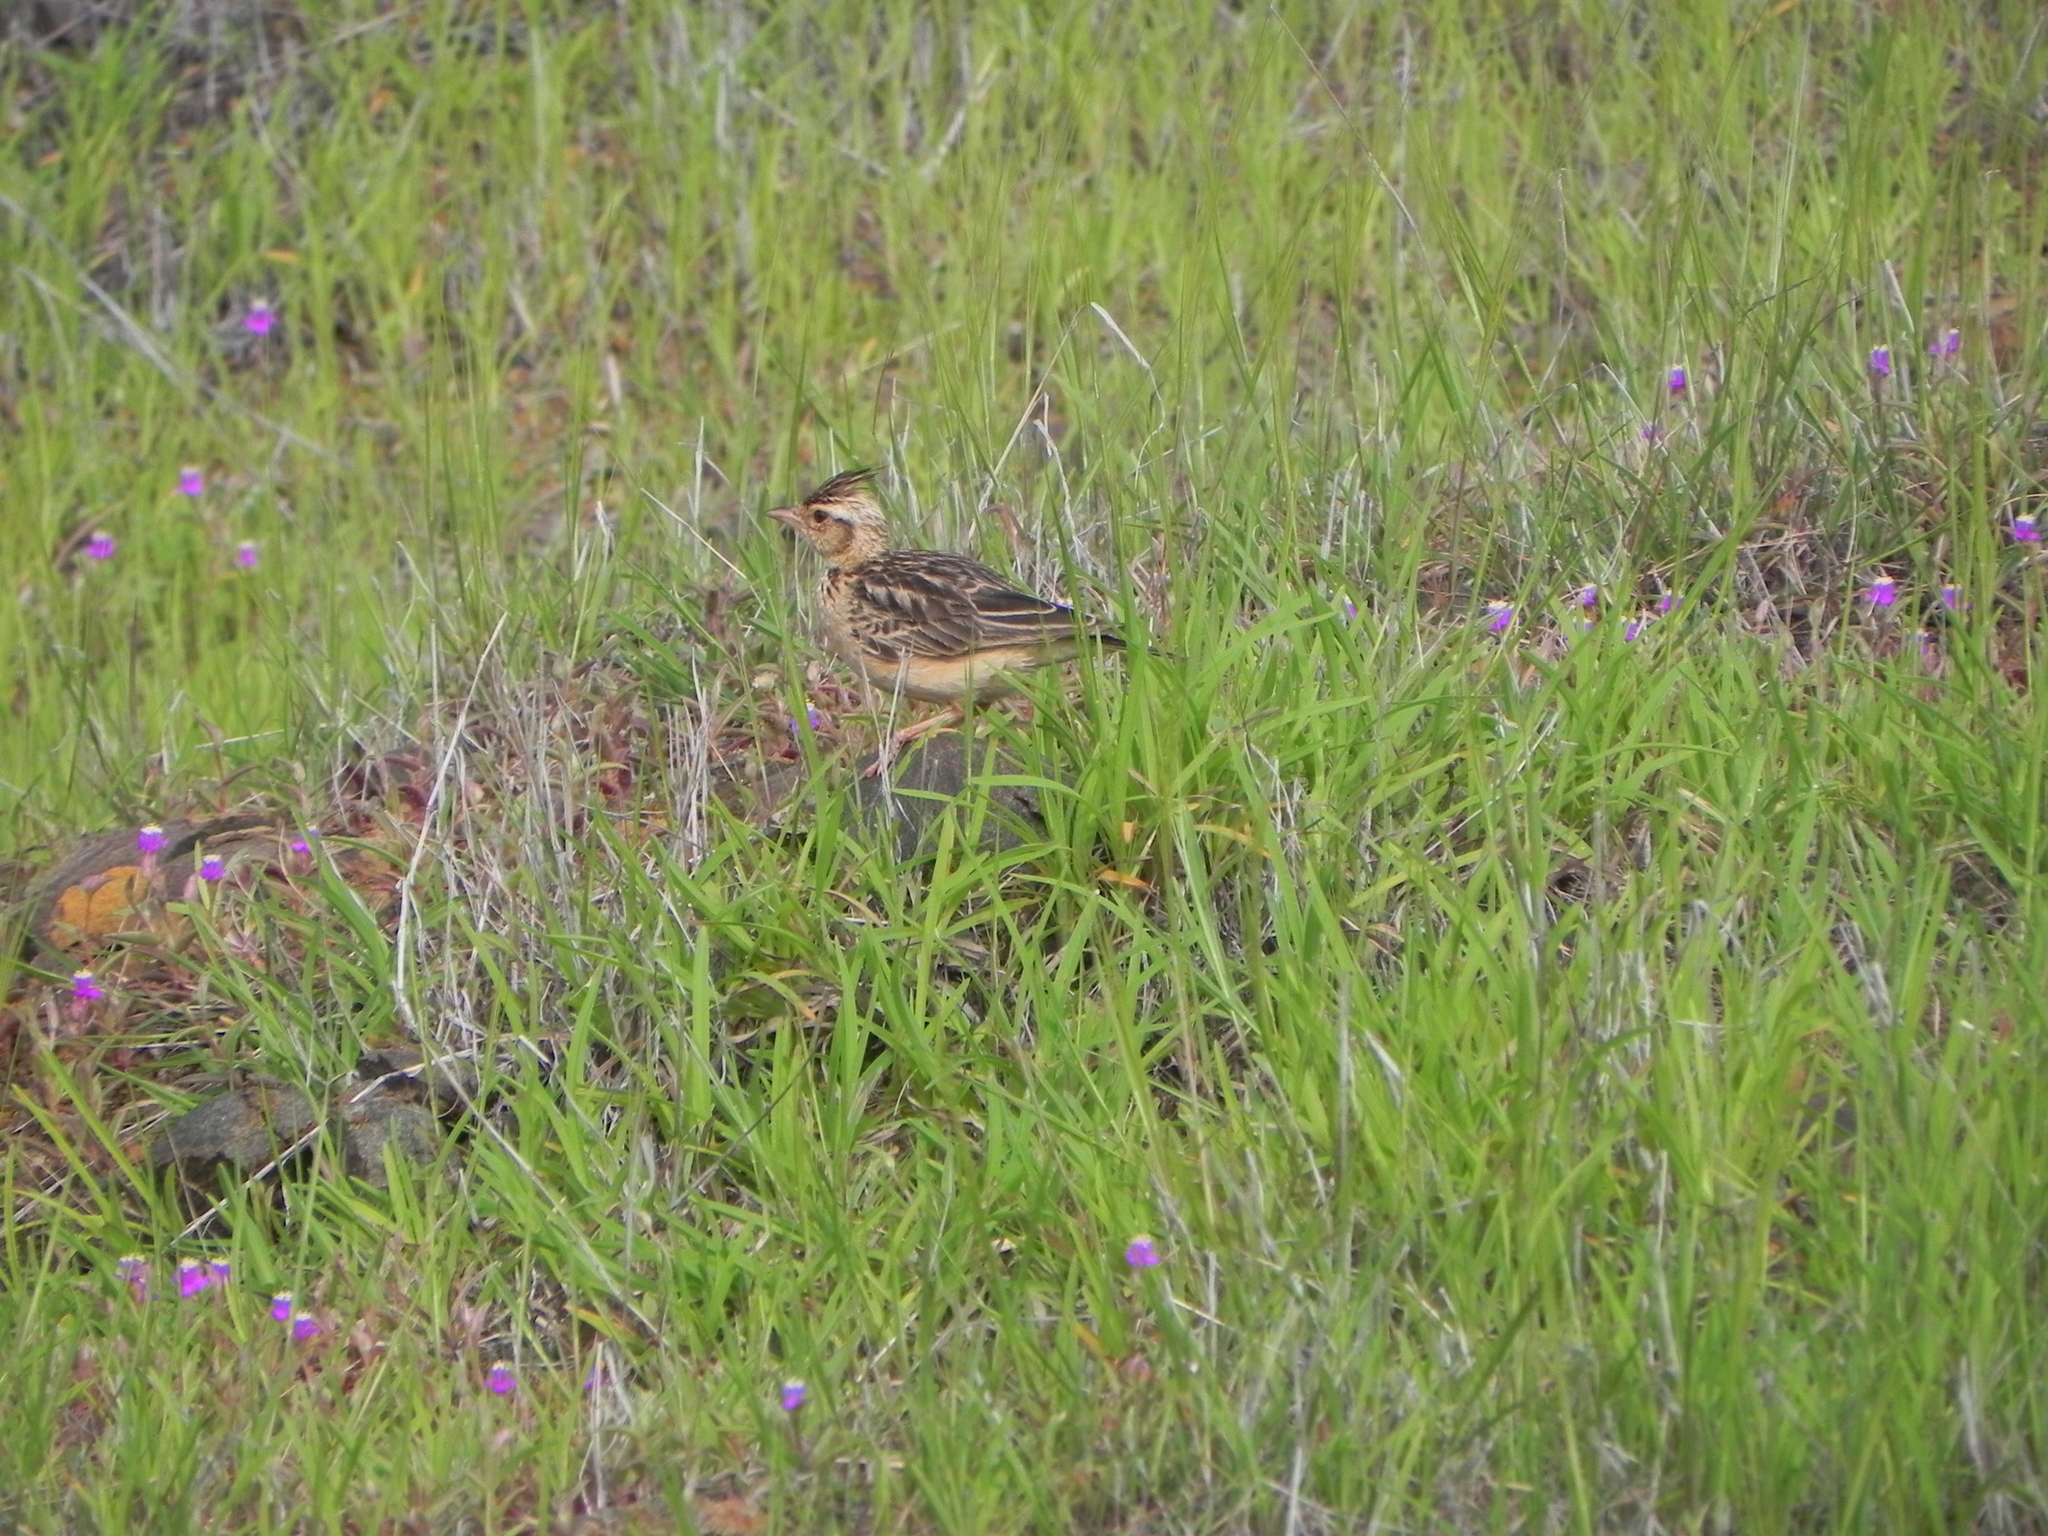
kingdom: Animalia
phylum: Chordata
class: Aves
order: Passeriformes
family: Alaudidae
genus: Galerida
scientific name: Galerida deva
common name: Sykes's lark
